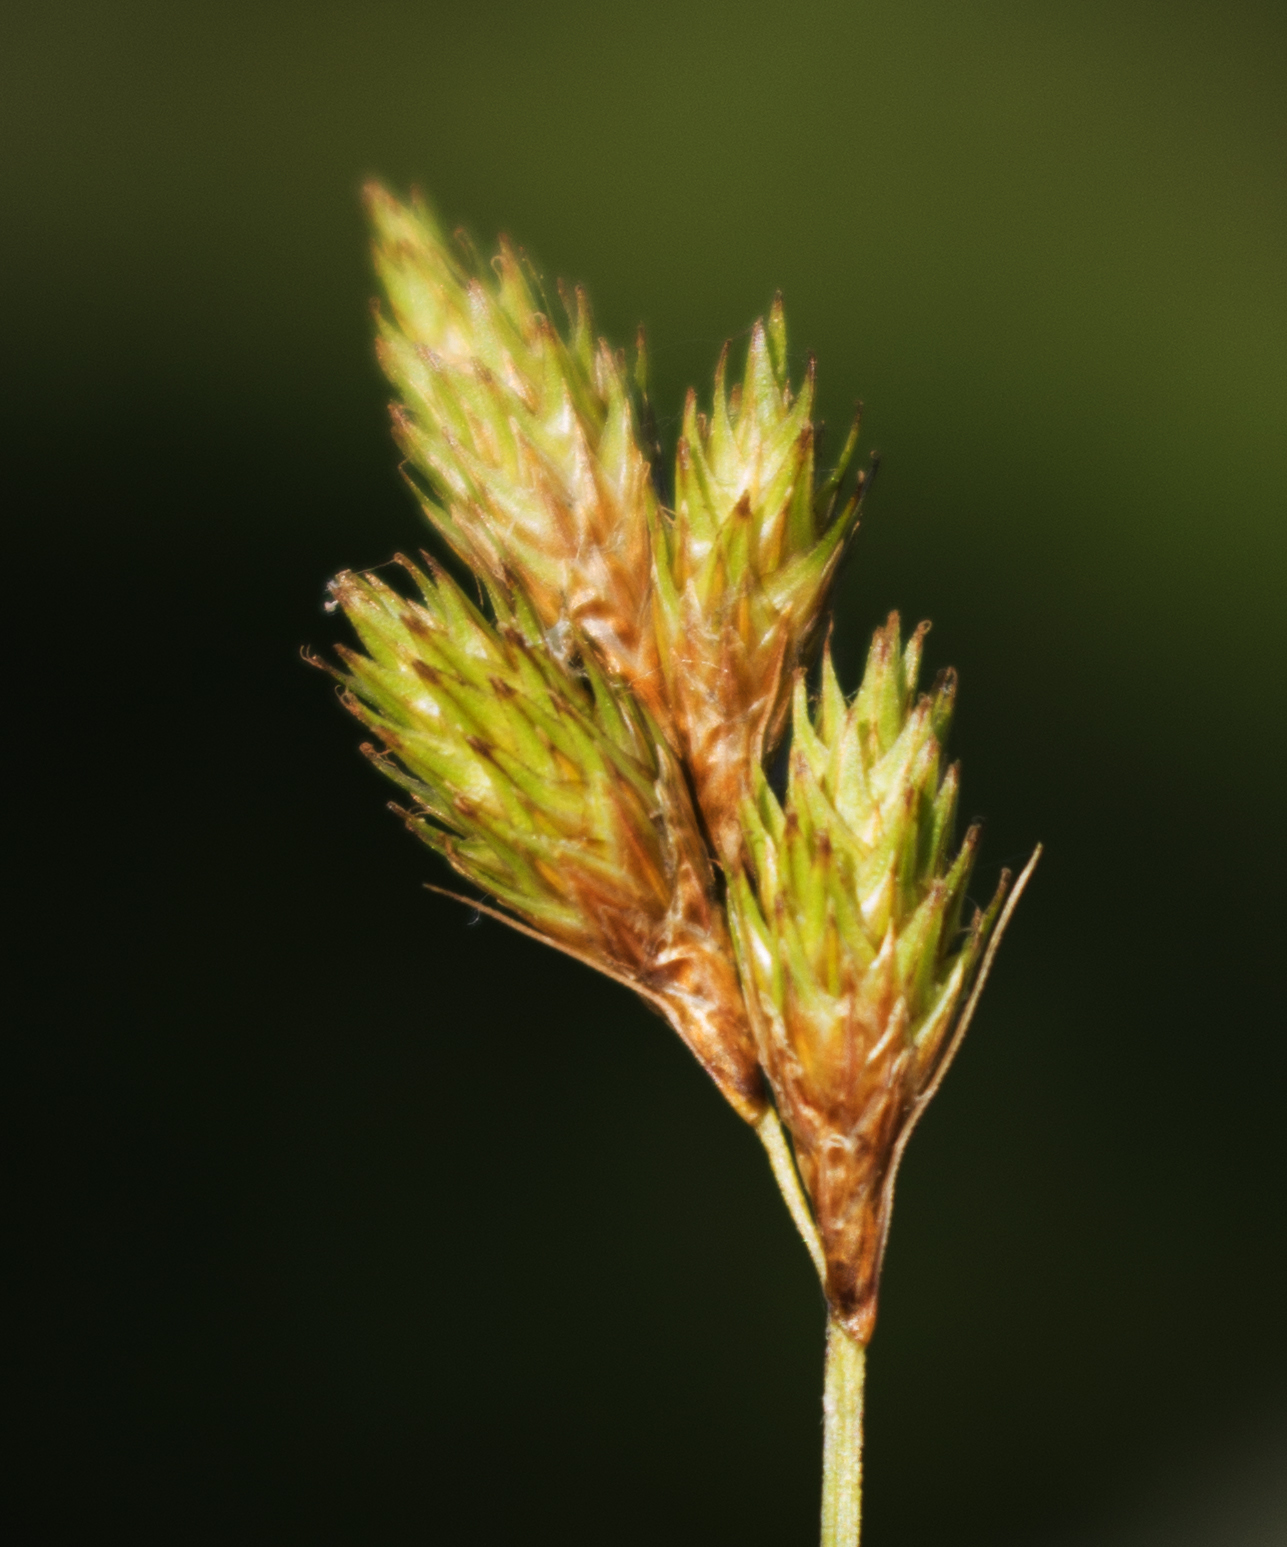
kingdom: Plantae
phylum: Tracheophyta
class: Liliopsida
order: Poales
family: Cyperaceae
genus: Carex
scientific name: Carex scoparia
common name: Broom sedge
